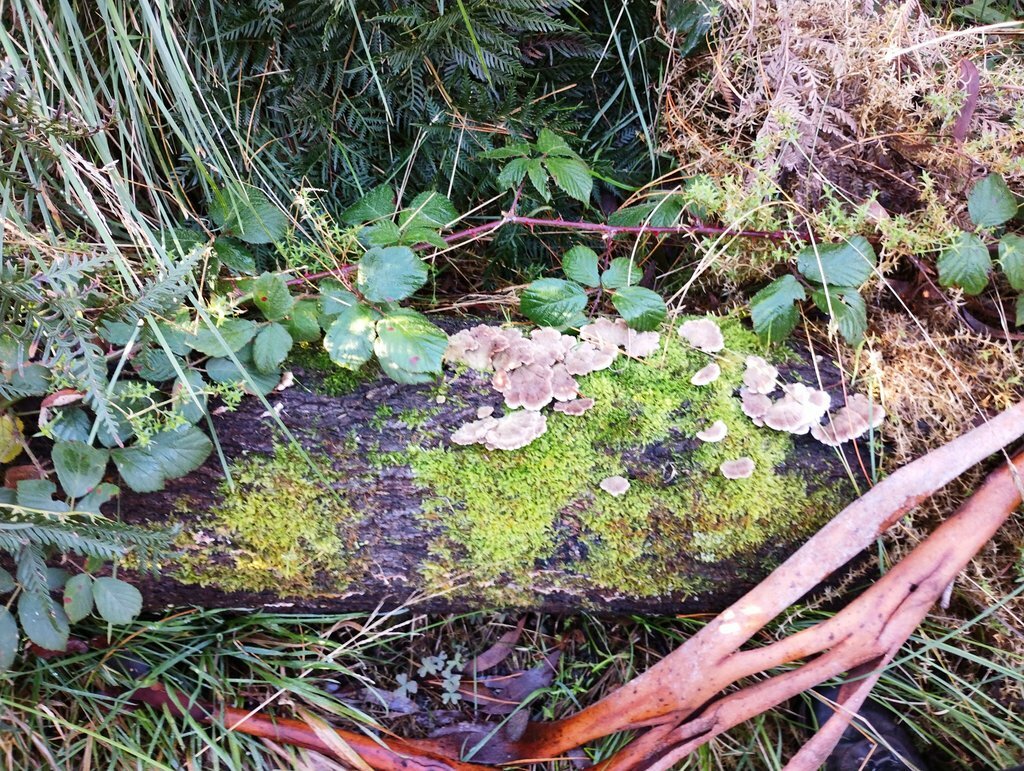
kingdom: Fungi
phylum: Basidiomycota
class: Agaricomycetes
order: Agaricales
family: Schizophyllaceae
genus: Schizophyllum
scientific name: Schizophyllum commune
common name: Common porecrust
